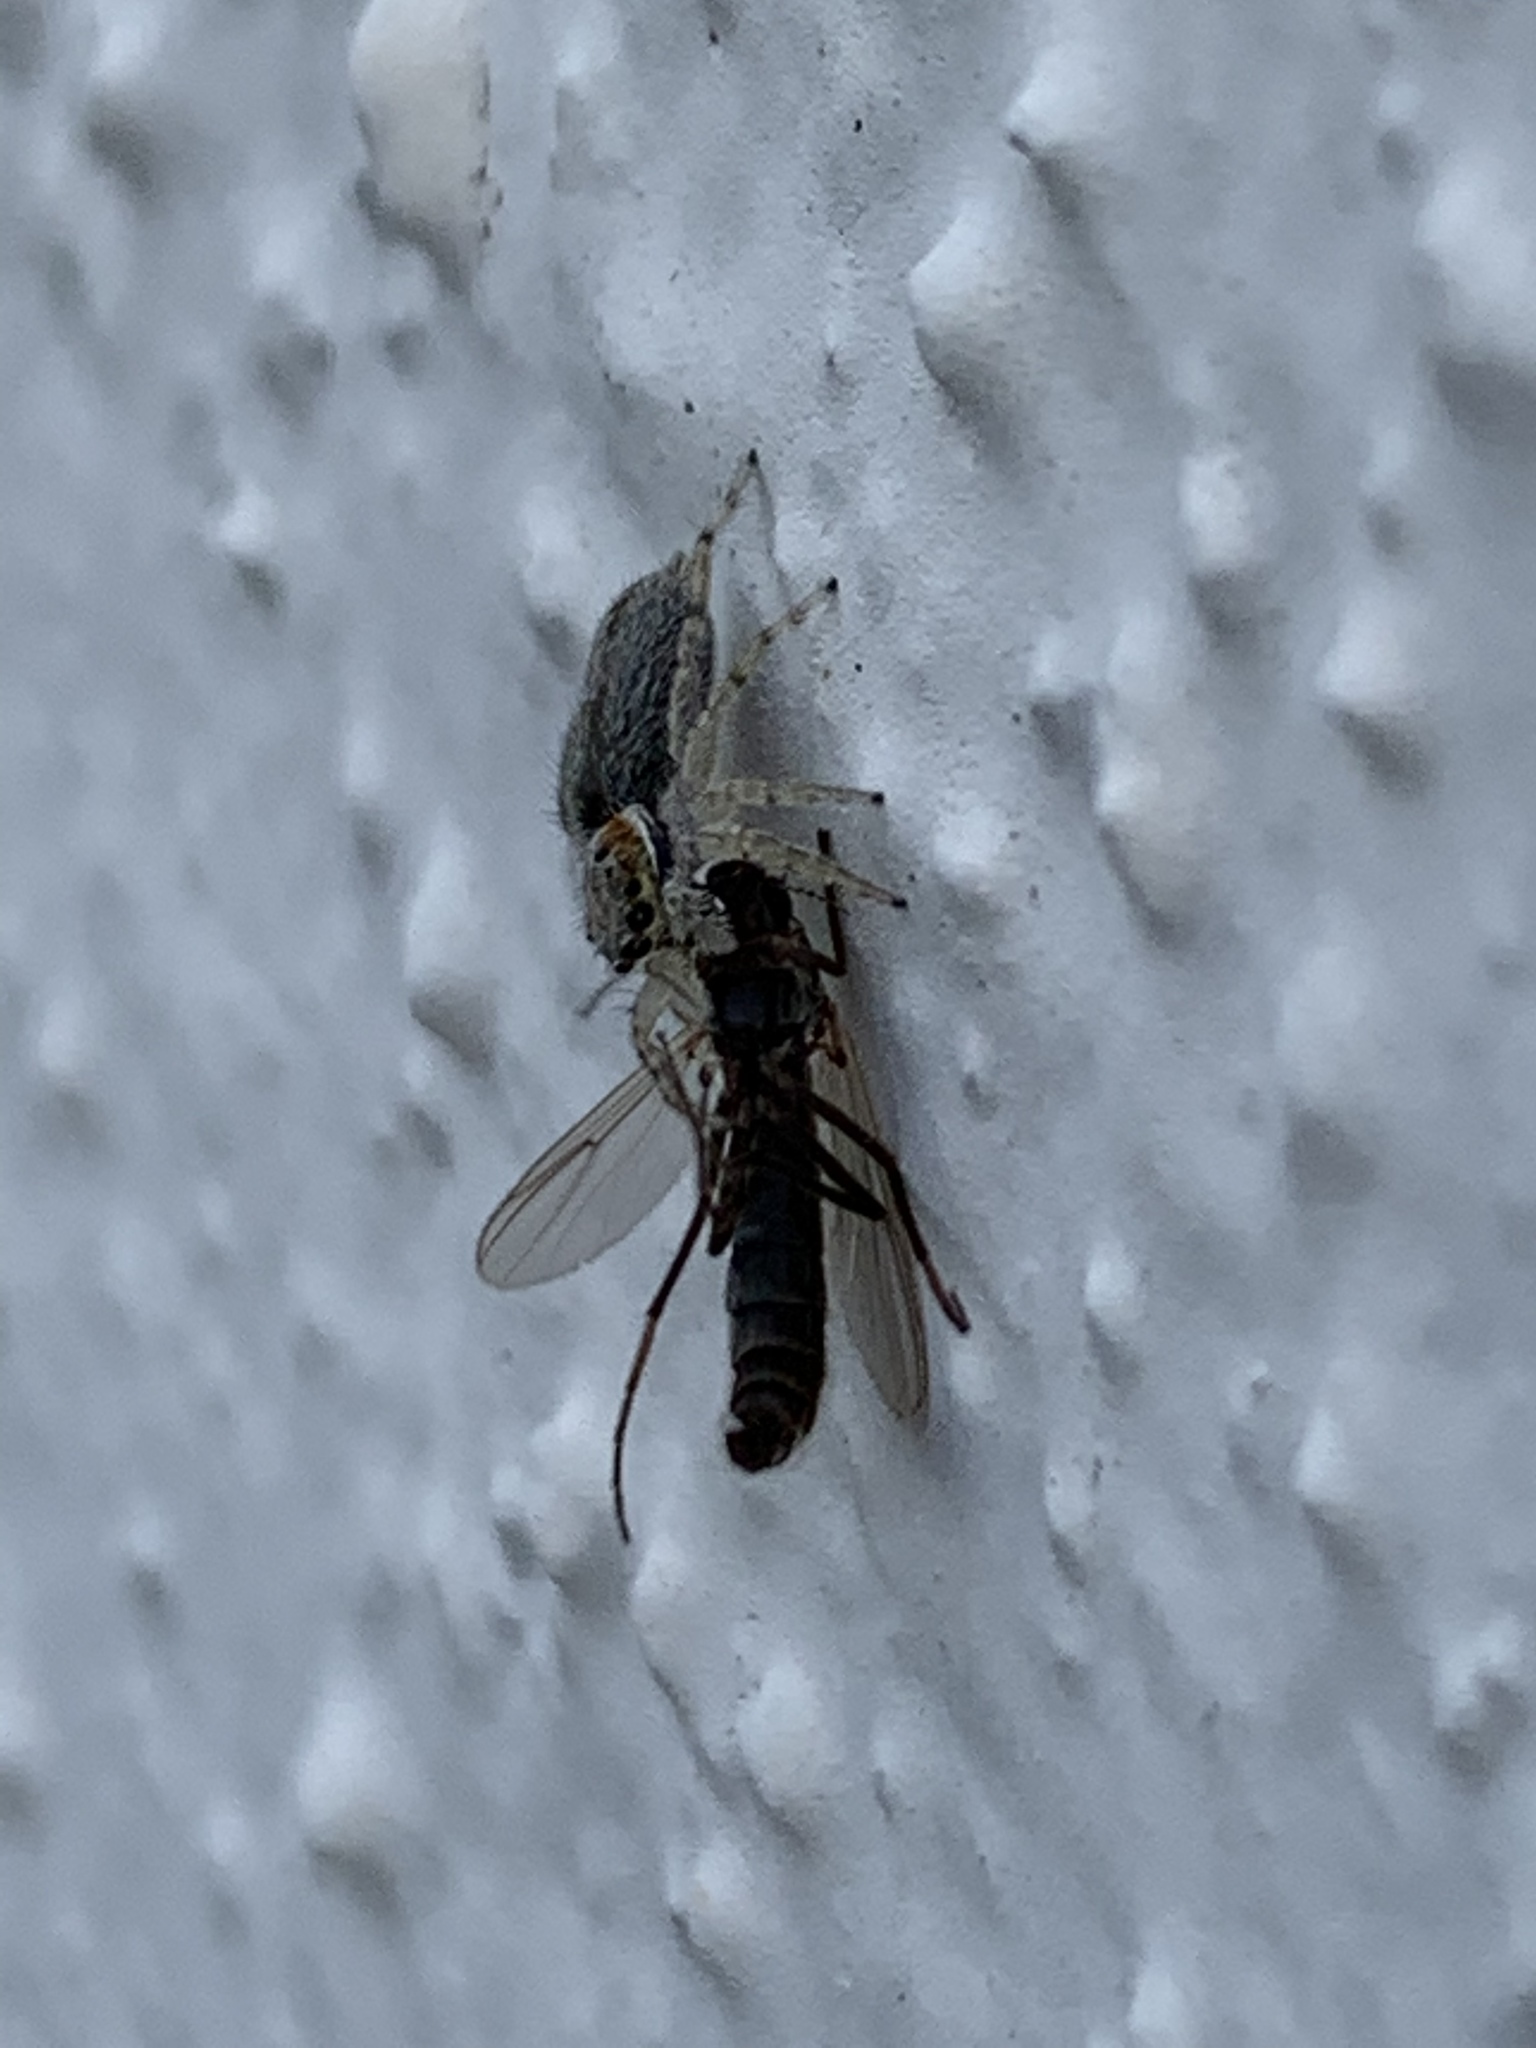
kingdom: Animalia
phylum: Arthropoda
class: Arachnida
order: Araneae
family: Salticidae
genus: Menemerus
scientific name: Menemerus bivittatus
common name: Gray wall jumper
